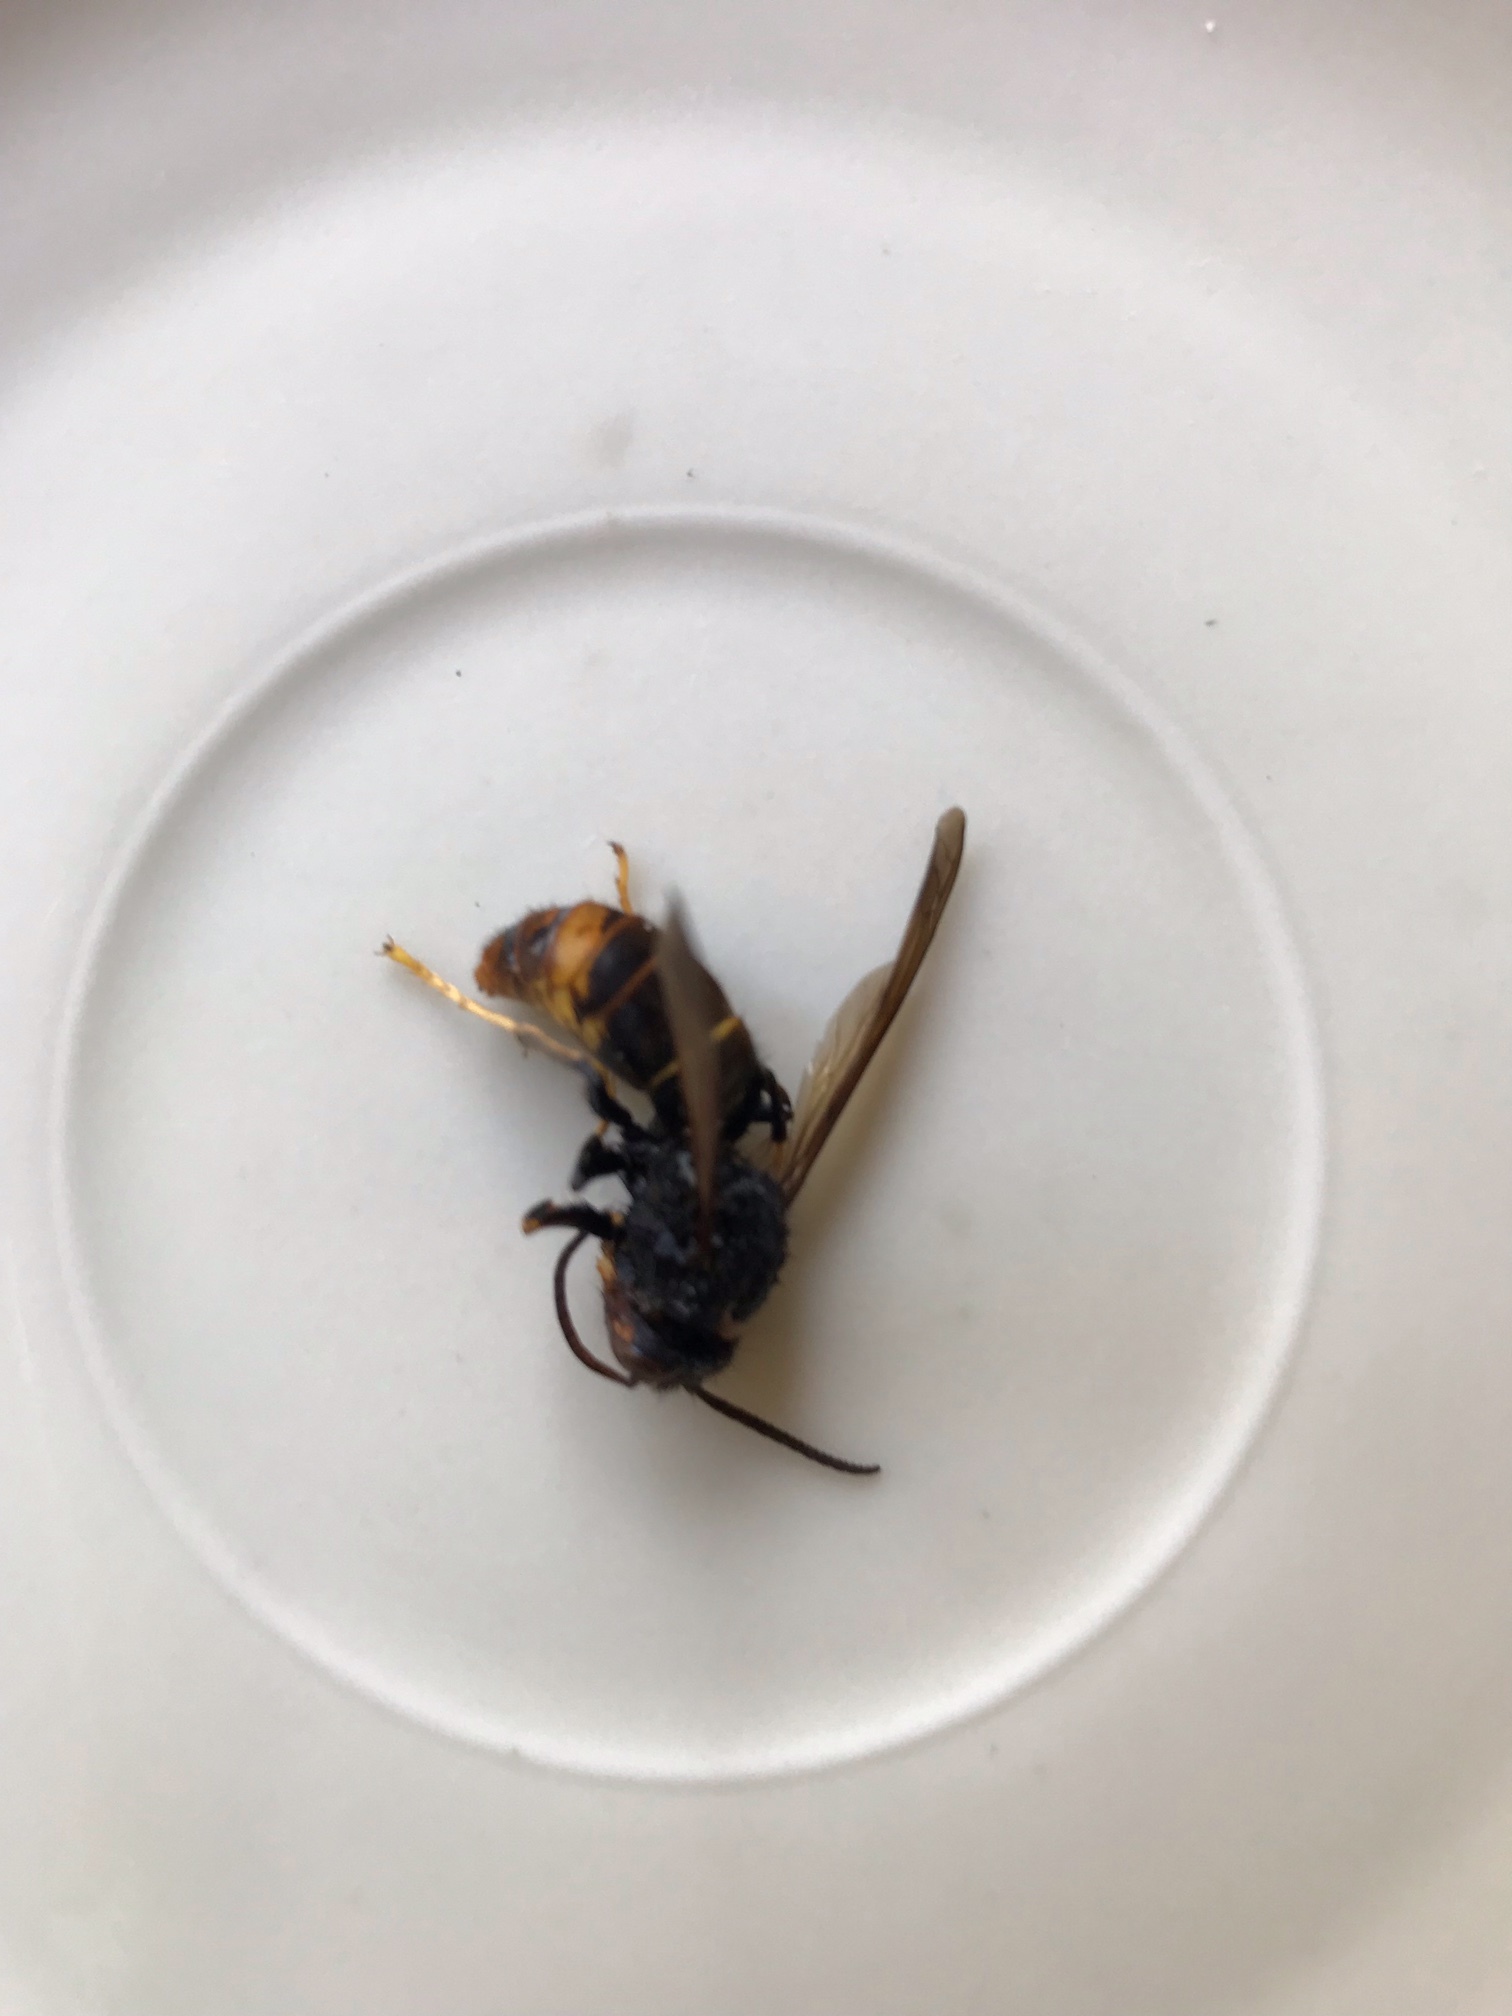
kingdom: Animalia
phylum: Arthropoda
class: Insecta
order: Hymenoptera
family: Vespidae
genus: Vespa
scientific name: Vespa velutina
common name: Asian hornet
